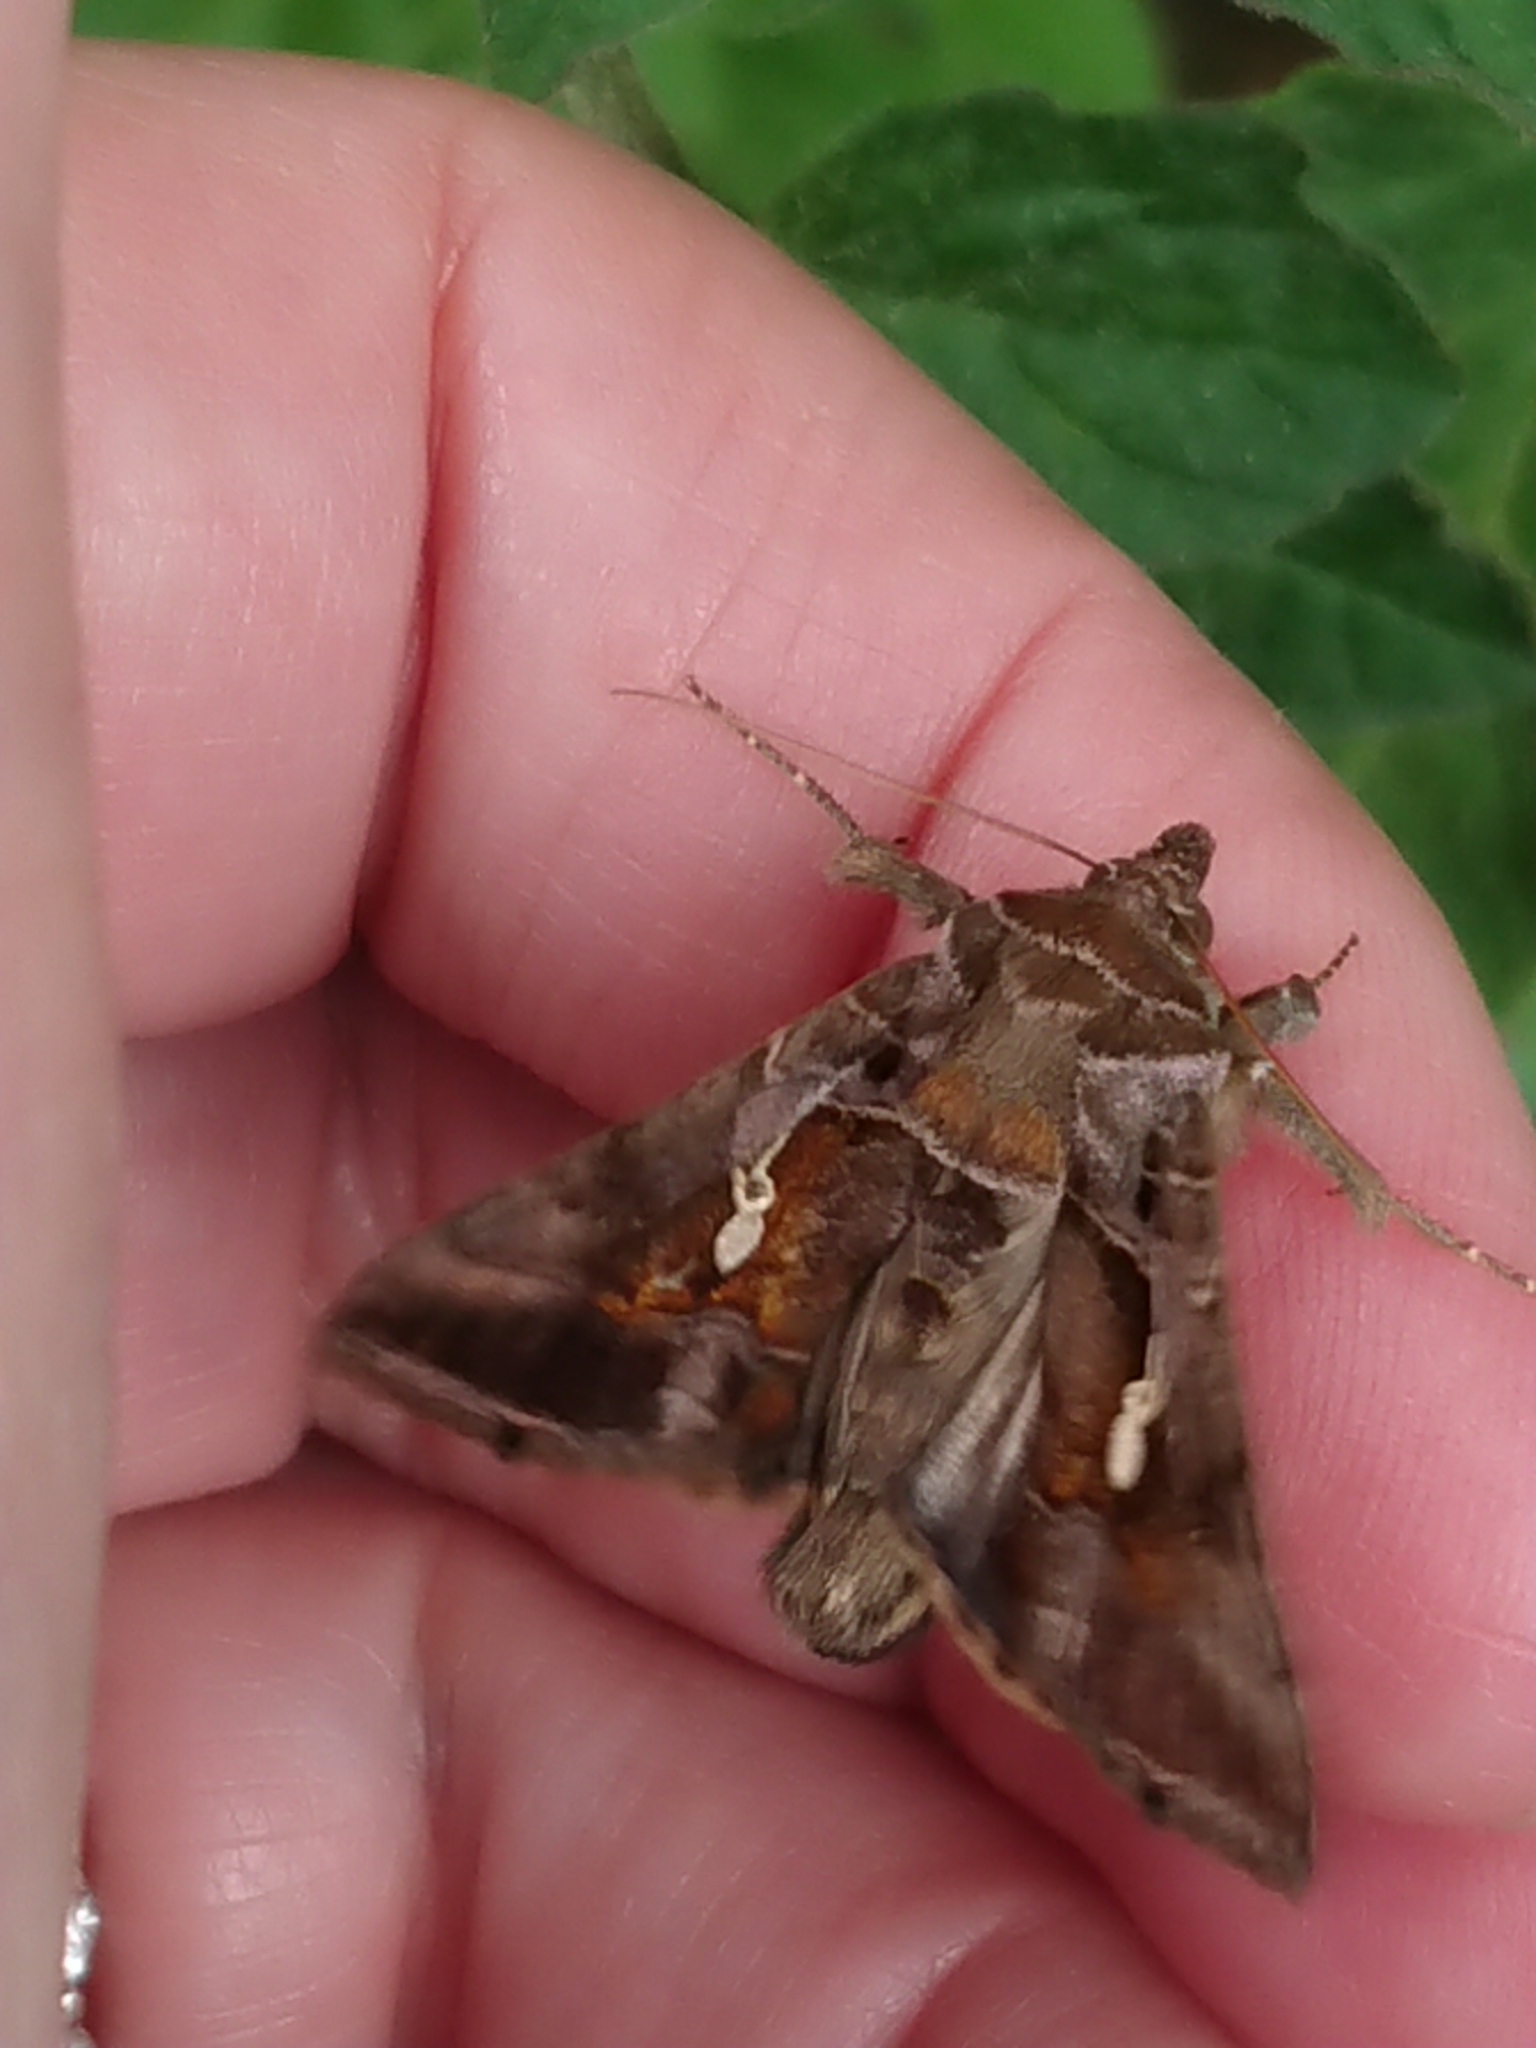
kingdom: Animalia
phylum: Arthropoda
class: Insecta
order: Lepidoptera
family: Noctuidae
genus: Chrysodeixis
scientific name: Chrysodeixis eriosoma
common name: Green garden looper
